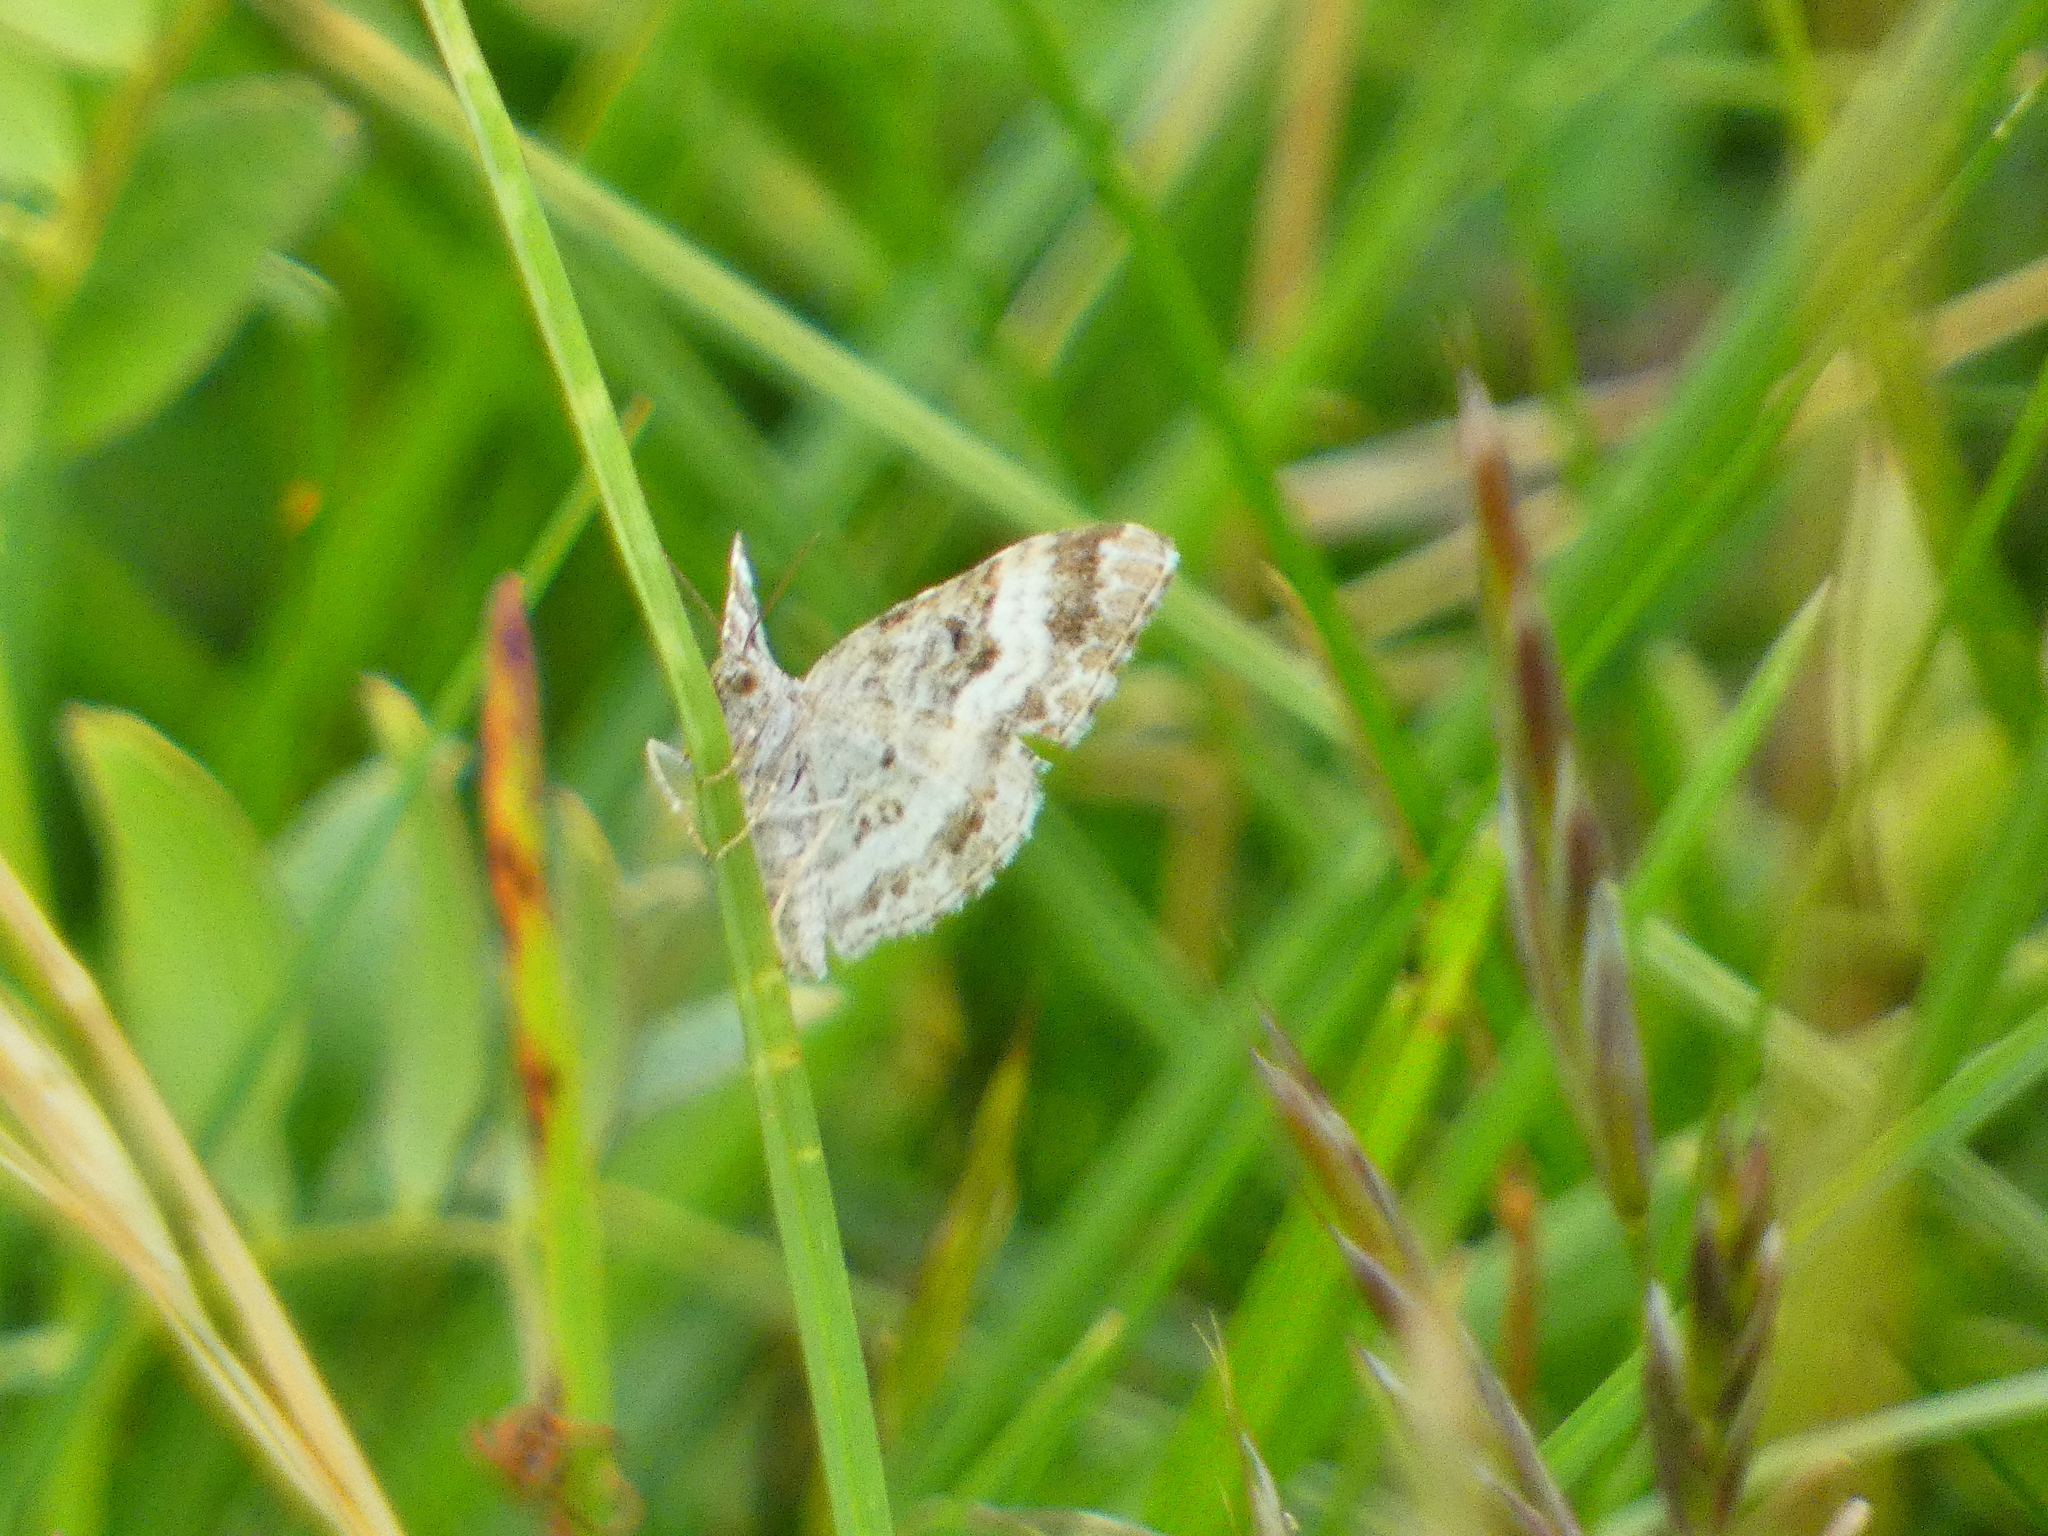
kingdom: Animalia
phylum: Arthropoda
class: Insecta
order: Lepidoptera
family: Geometridae
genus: Epirrhoe
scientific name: Epirrhoe alternata
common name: Common carpet
